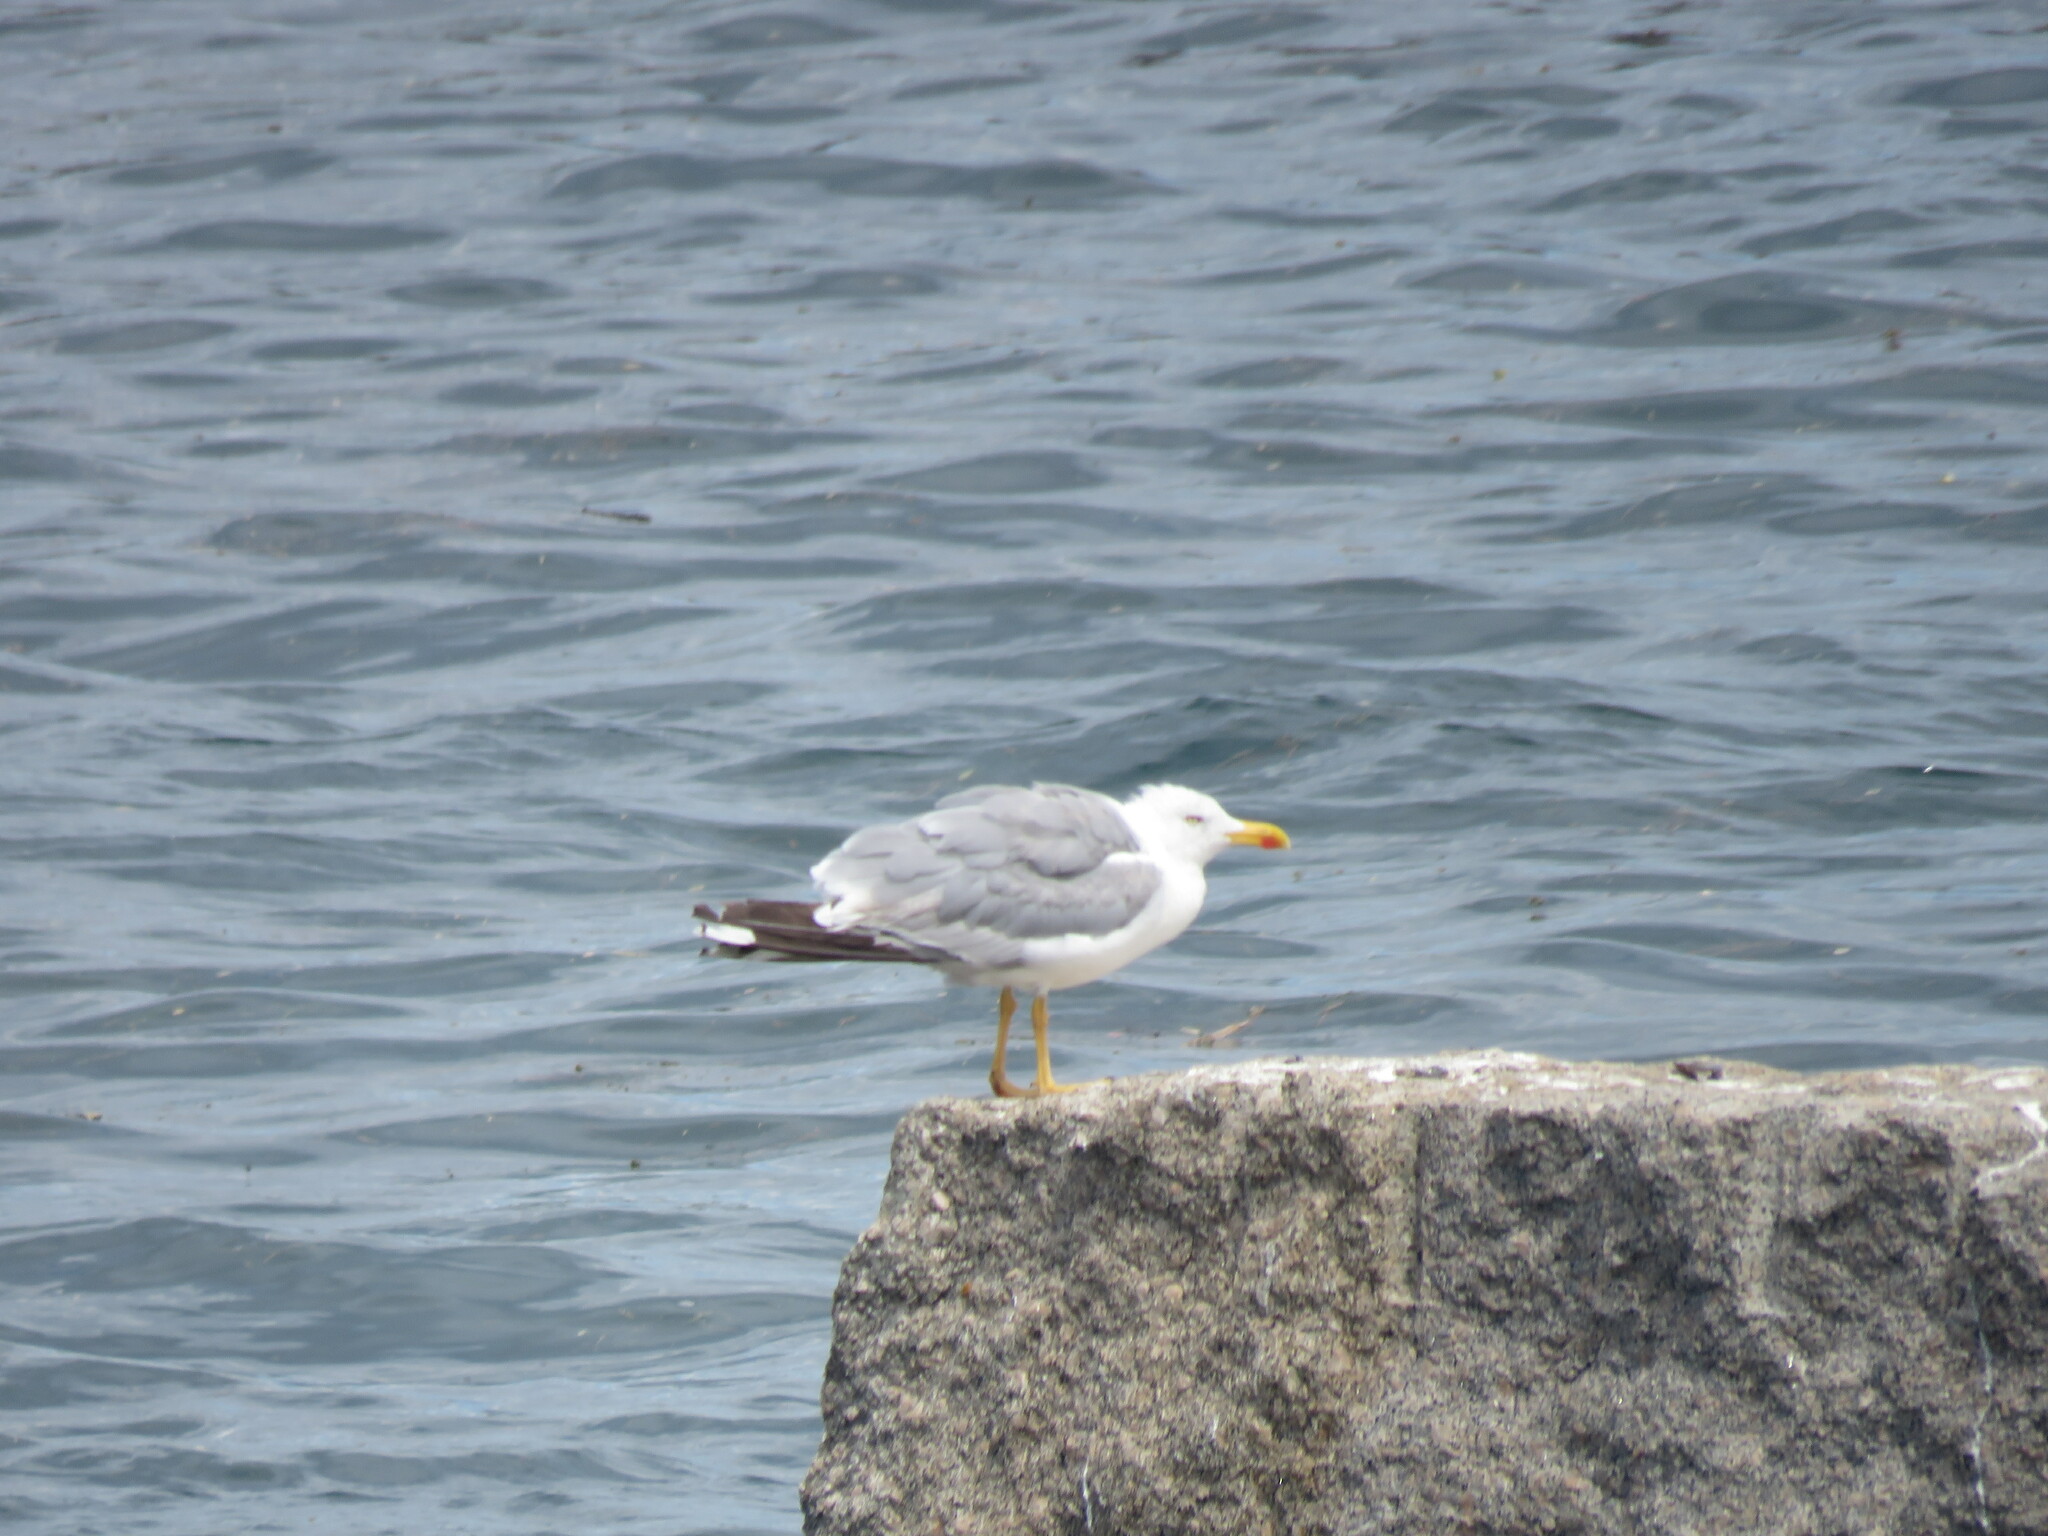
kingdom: Animalia
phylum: Chordata
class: Aves
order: Charadriiformes
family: Laridae
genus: Larus
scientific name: Larus michahellis
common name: Yellow-legged gull
